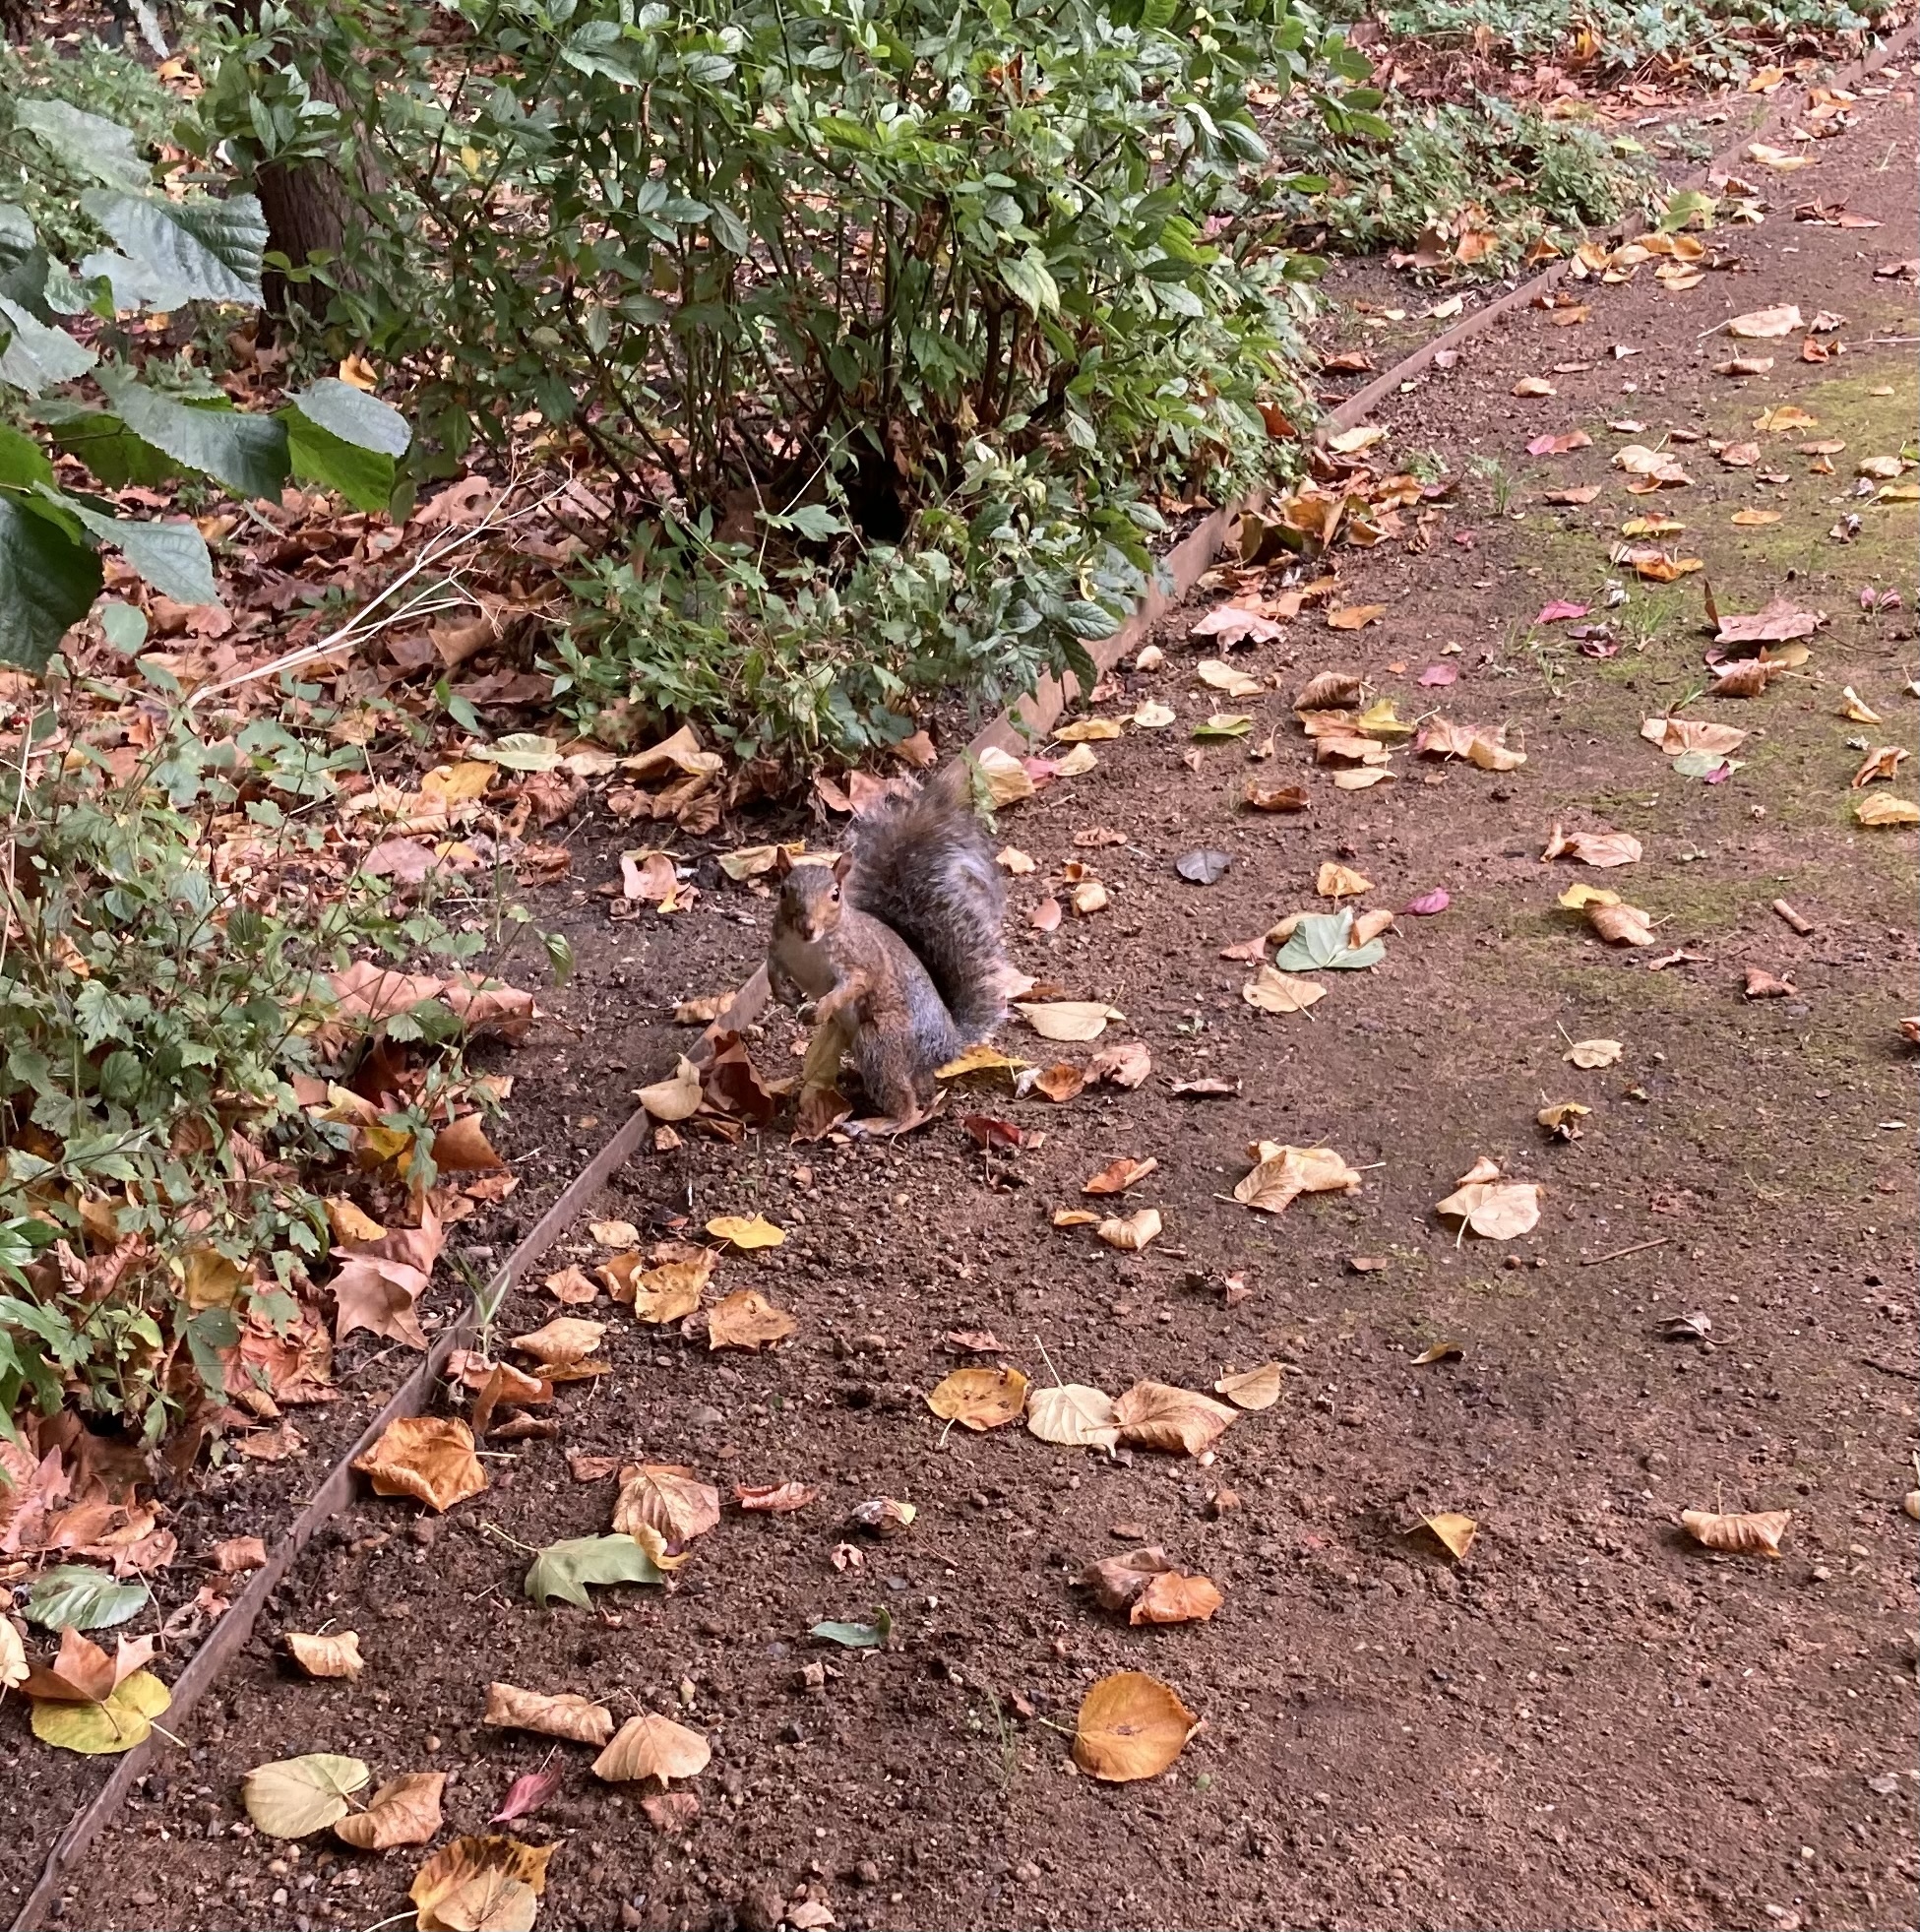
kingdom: Animalia
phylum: Chordata
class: Mammalia
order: Rodentia
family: Sciuridae
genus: Sciurus
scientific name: Sciurus carolinensis
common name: Eastern gray squirrel
